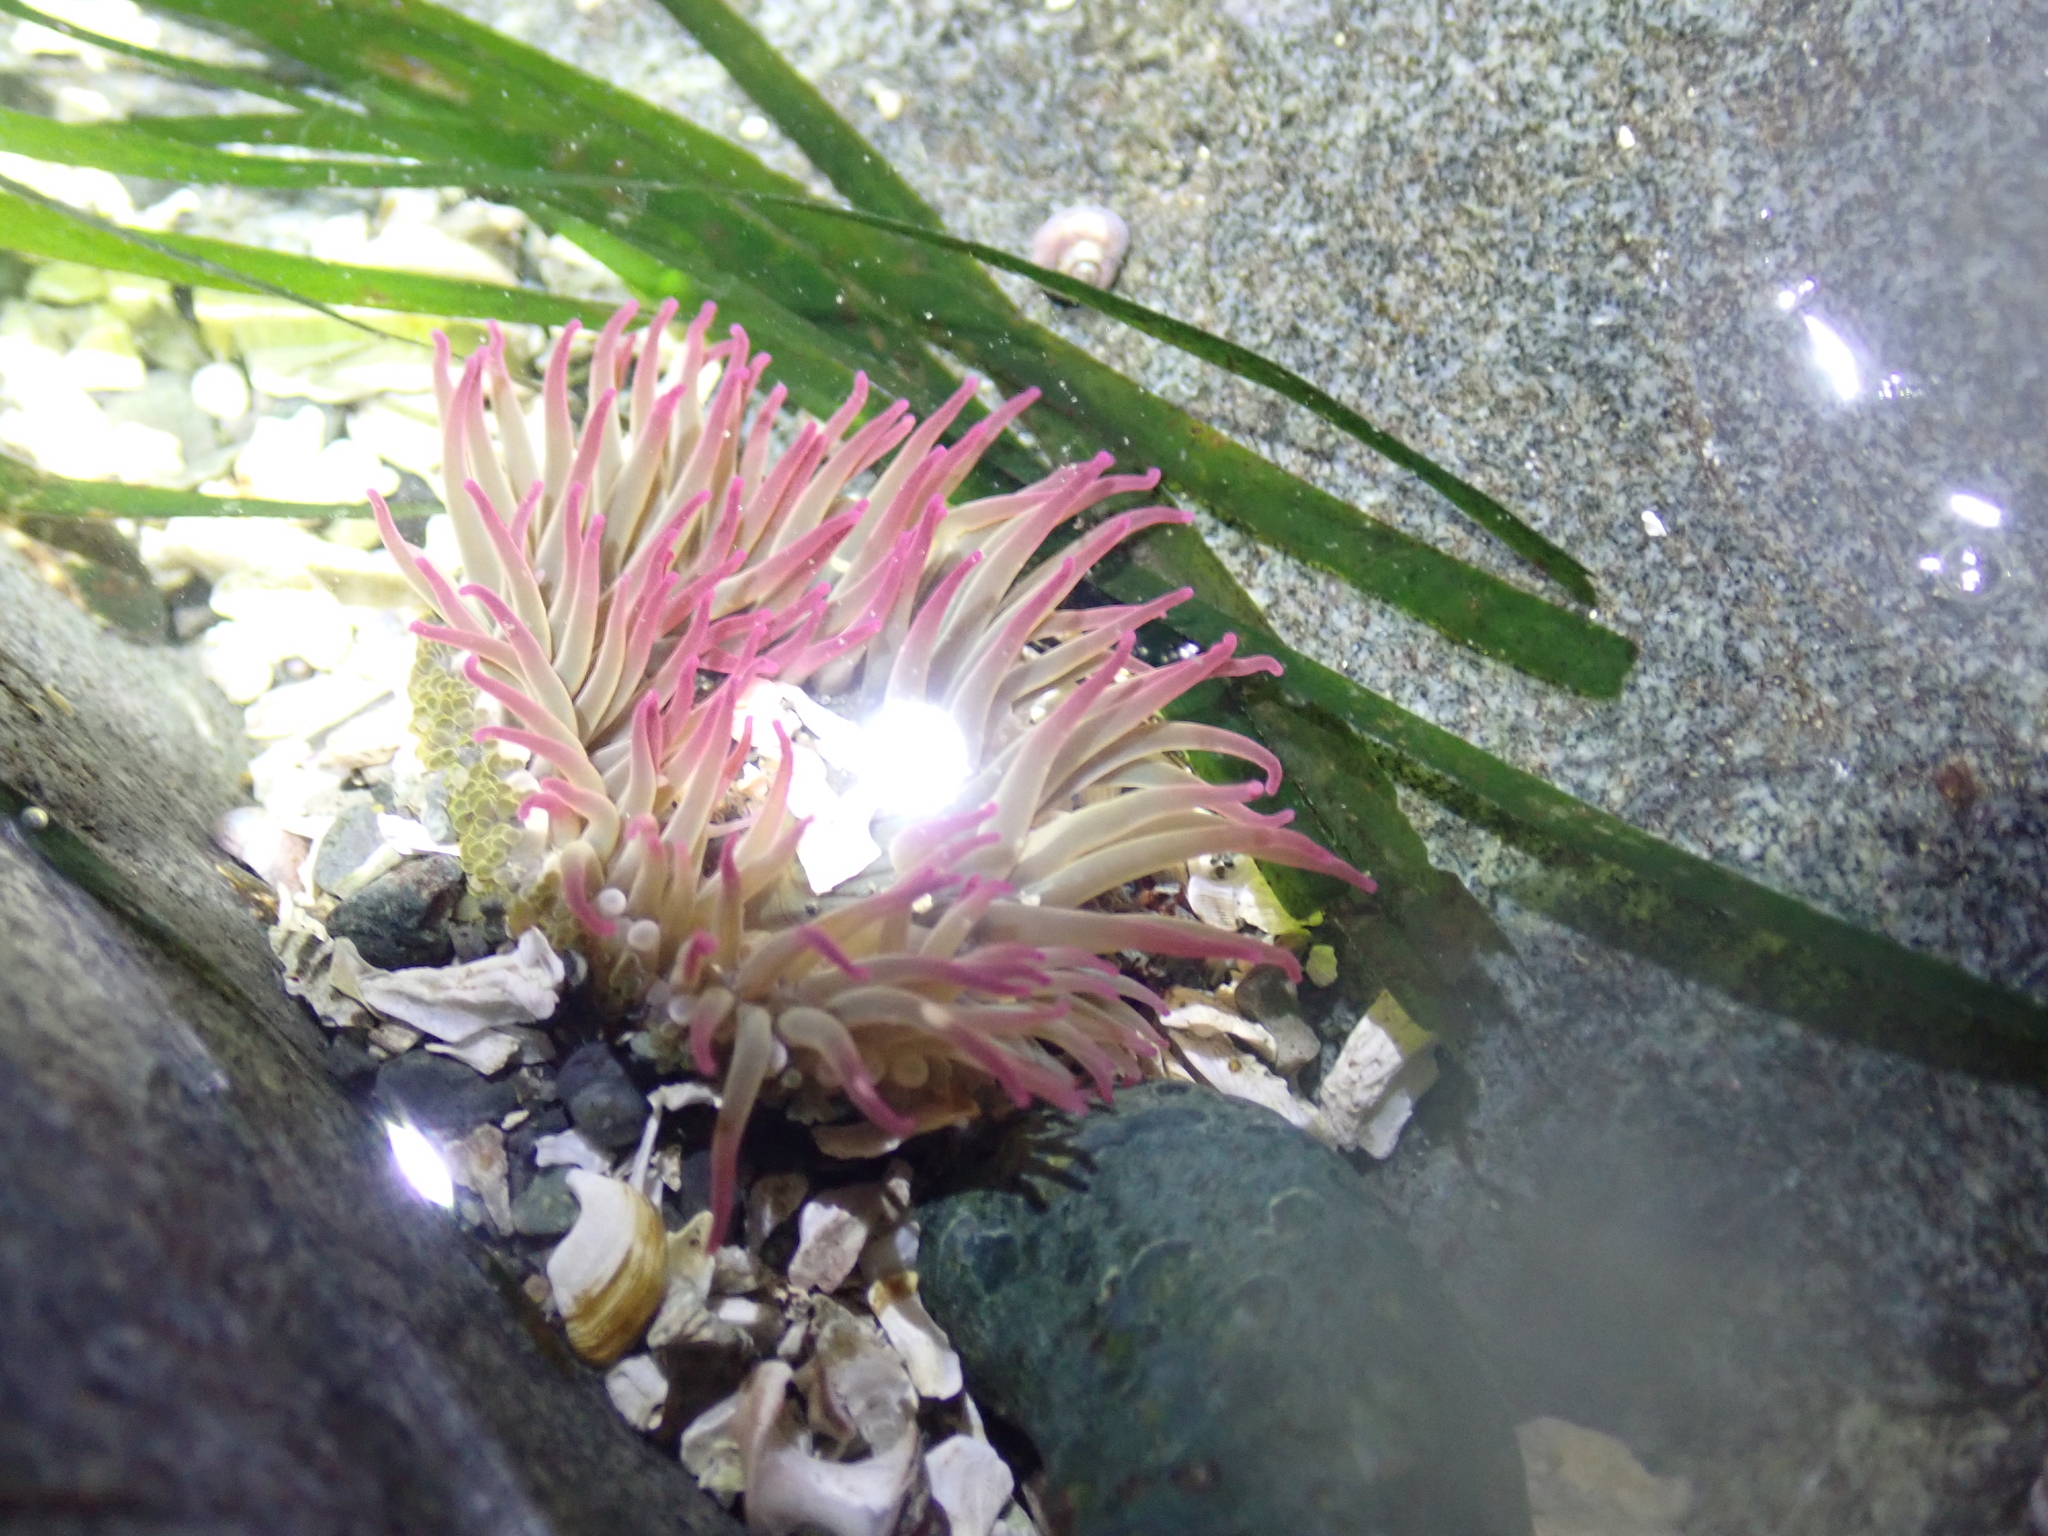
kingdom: Animalia
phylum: Cnidaria
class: Anthozoa
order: Actiniaria
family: Actiniidae
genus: Anthopleura
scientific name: Anthopleura elegantissima
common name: Clonal anemone
